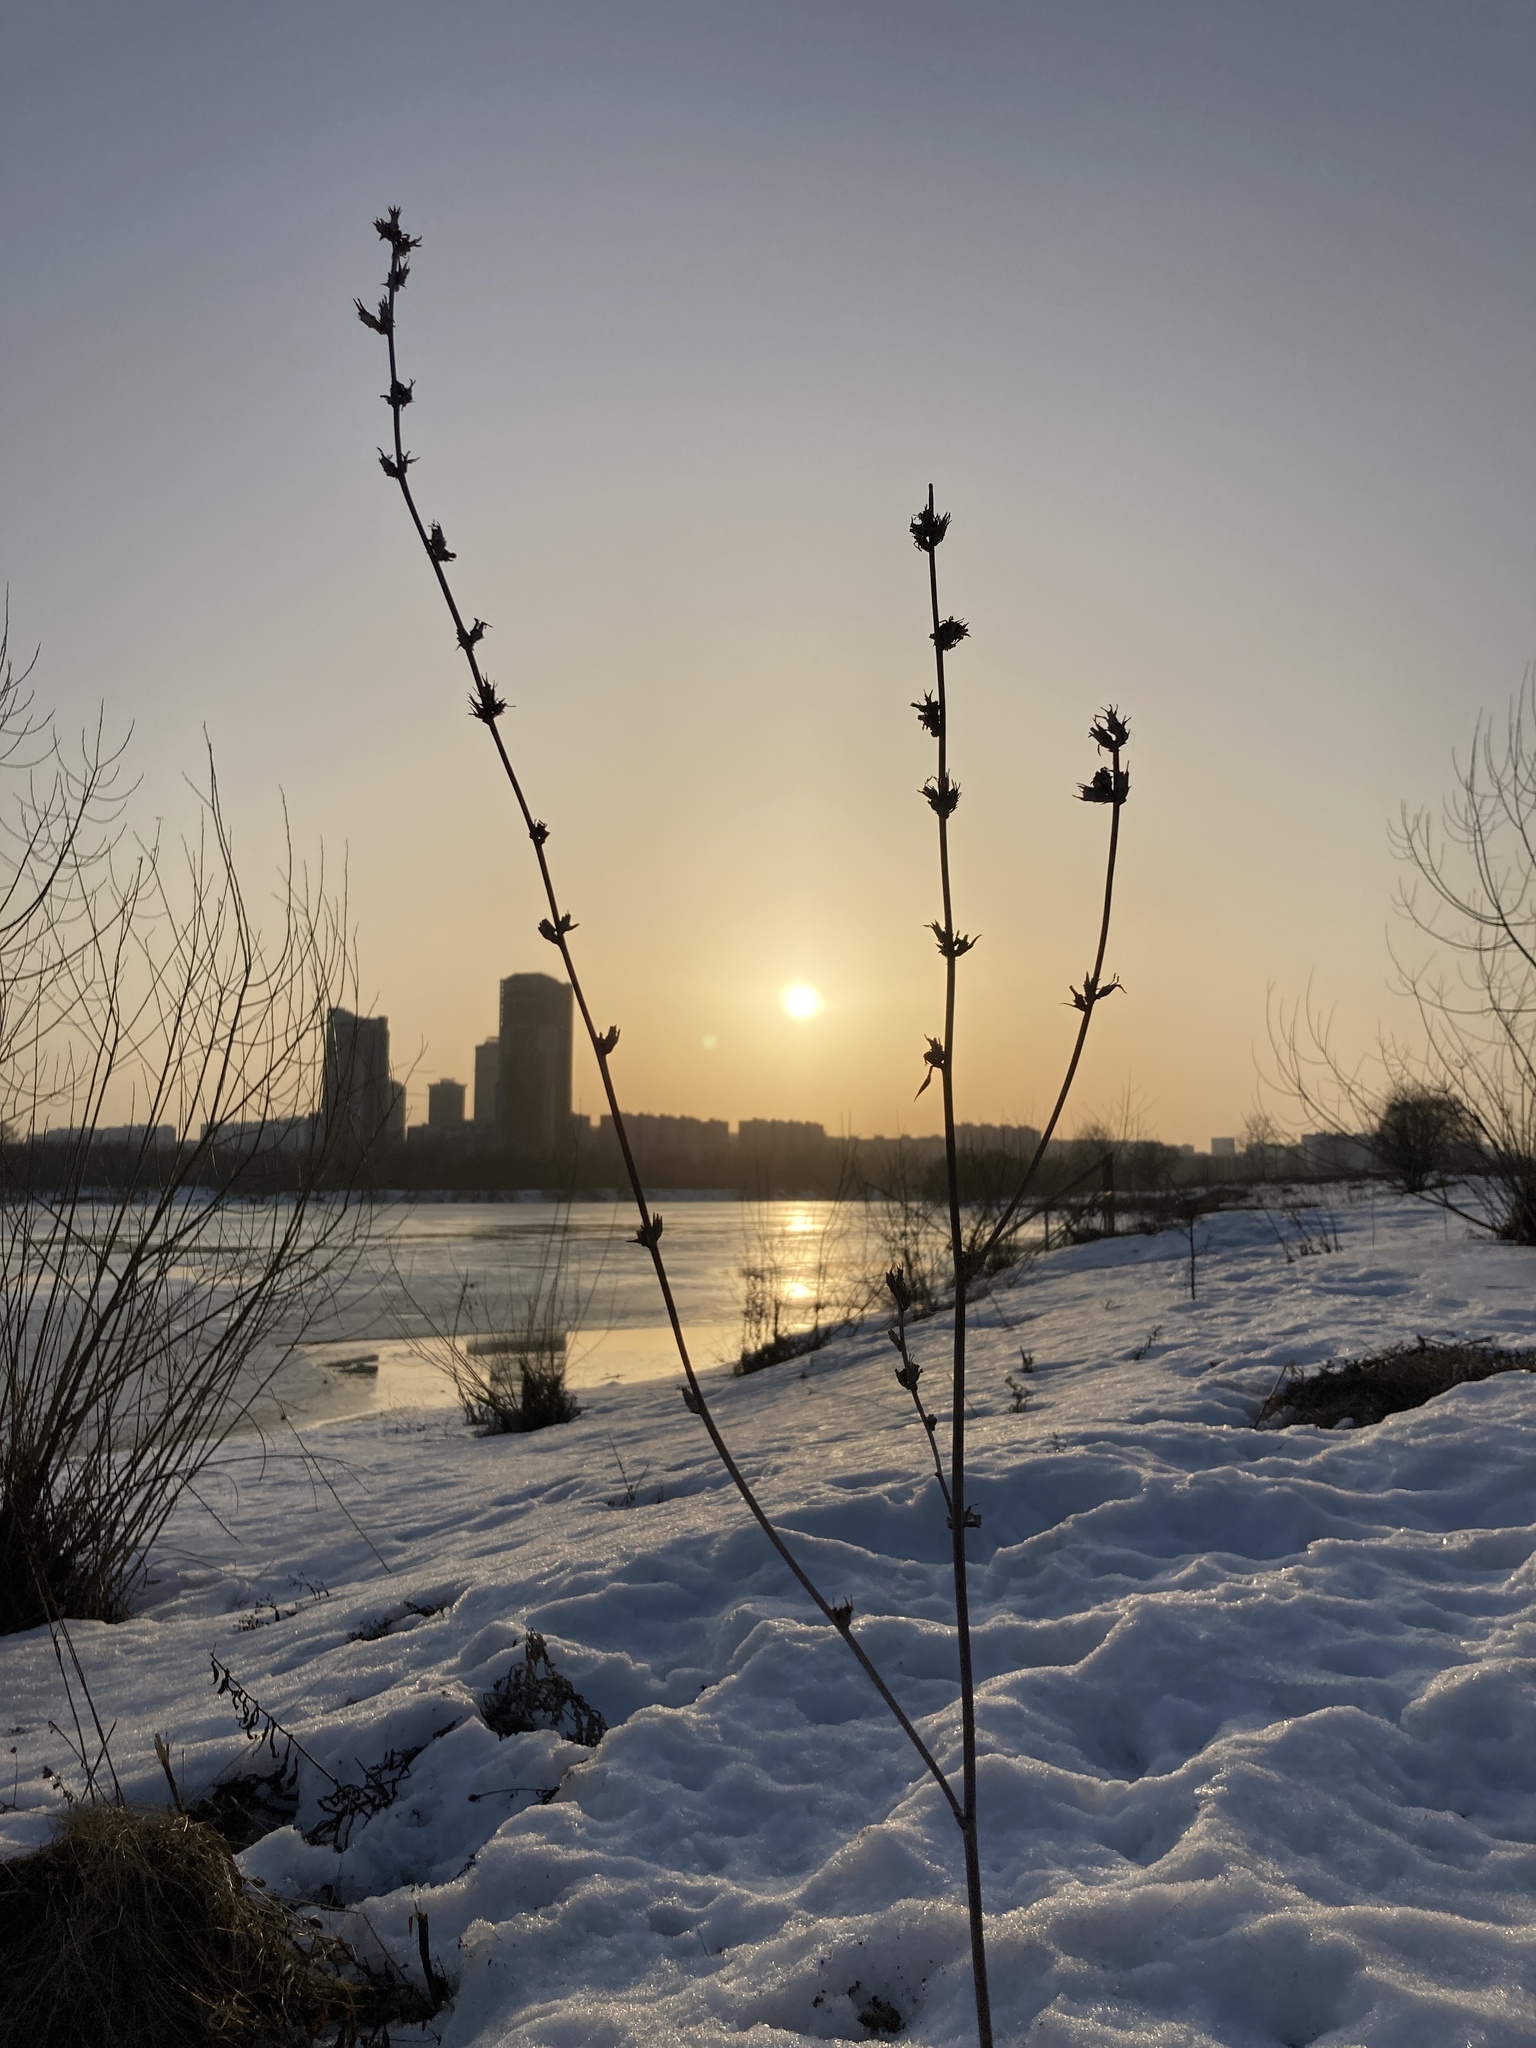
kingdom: Plantae
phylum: Tracheophyta
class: Magnoliopsida
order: Asterales
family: Asteraceae
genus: Cichorium
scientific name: Cichorium intybus
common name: Chicory
